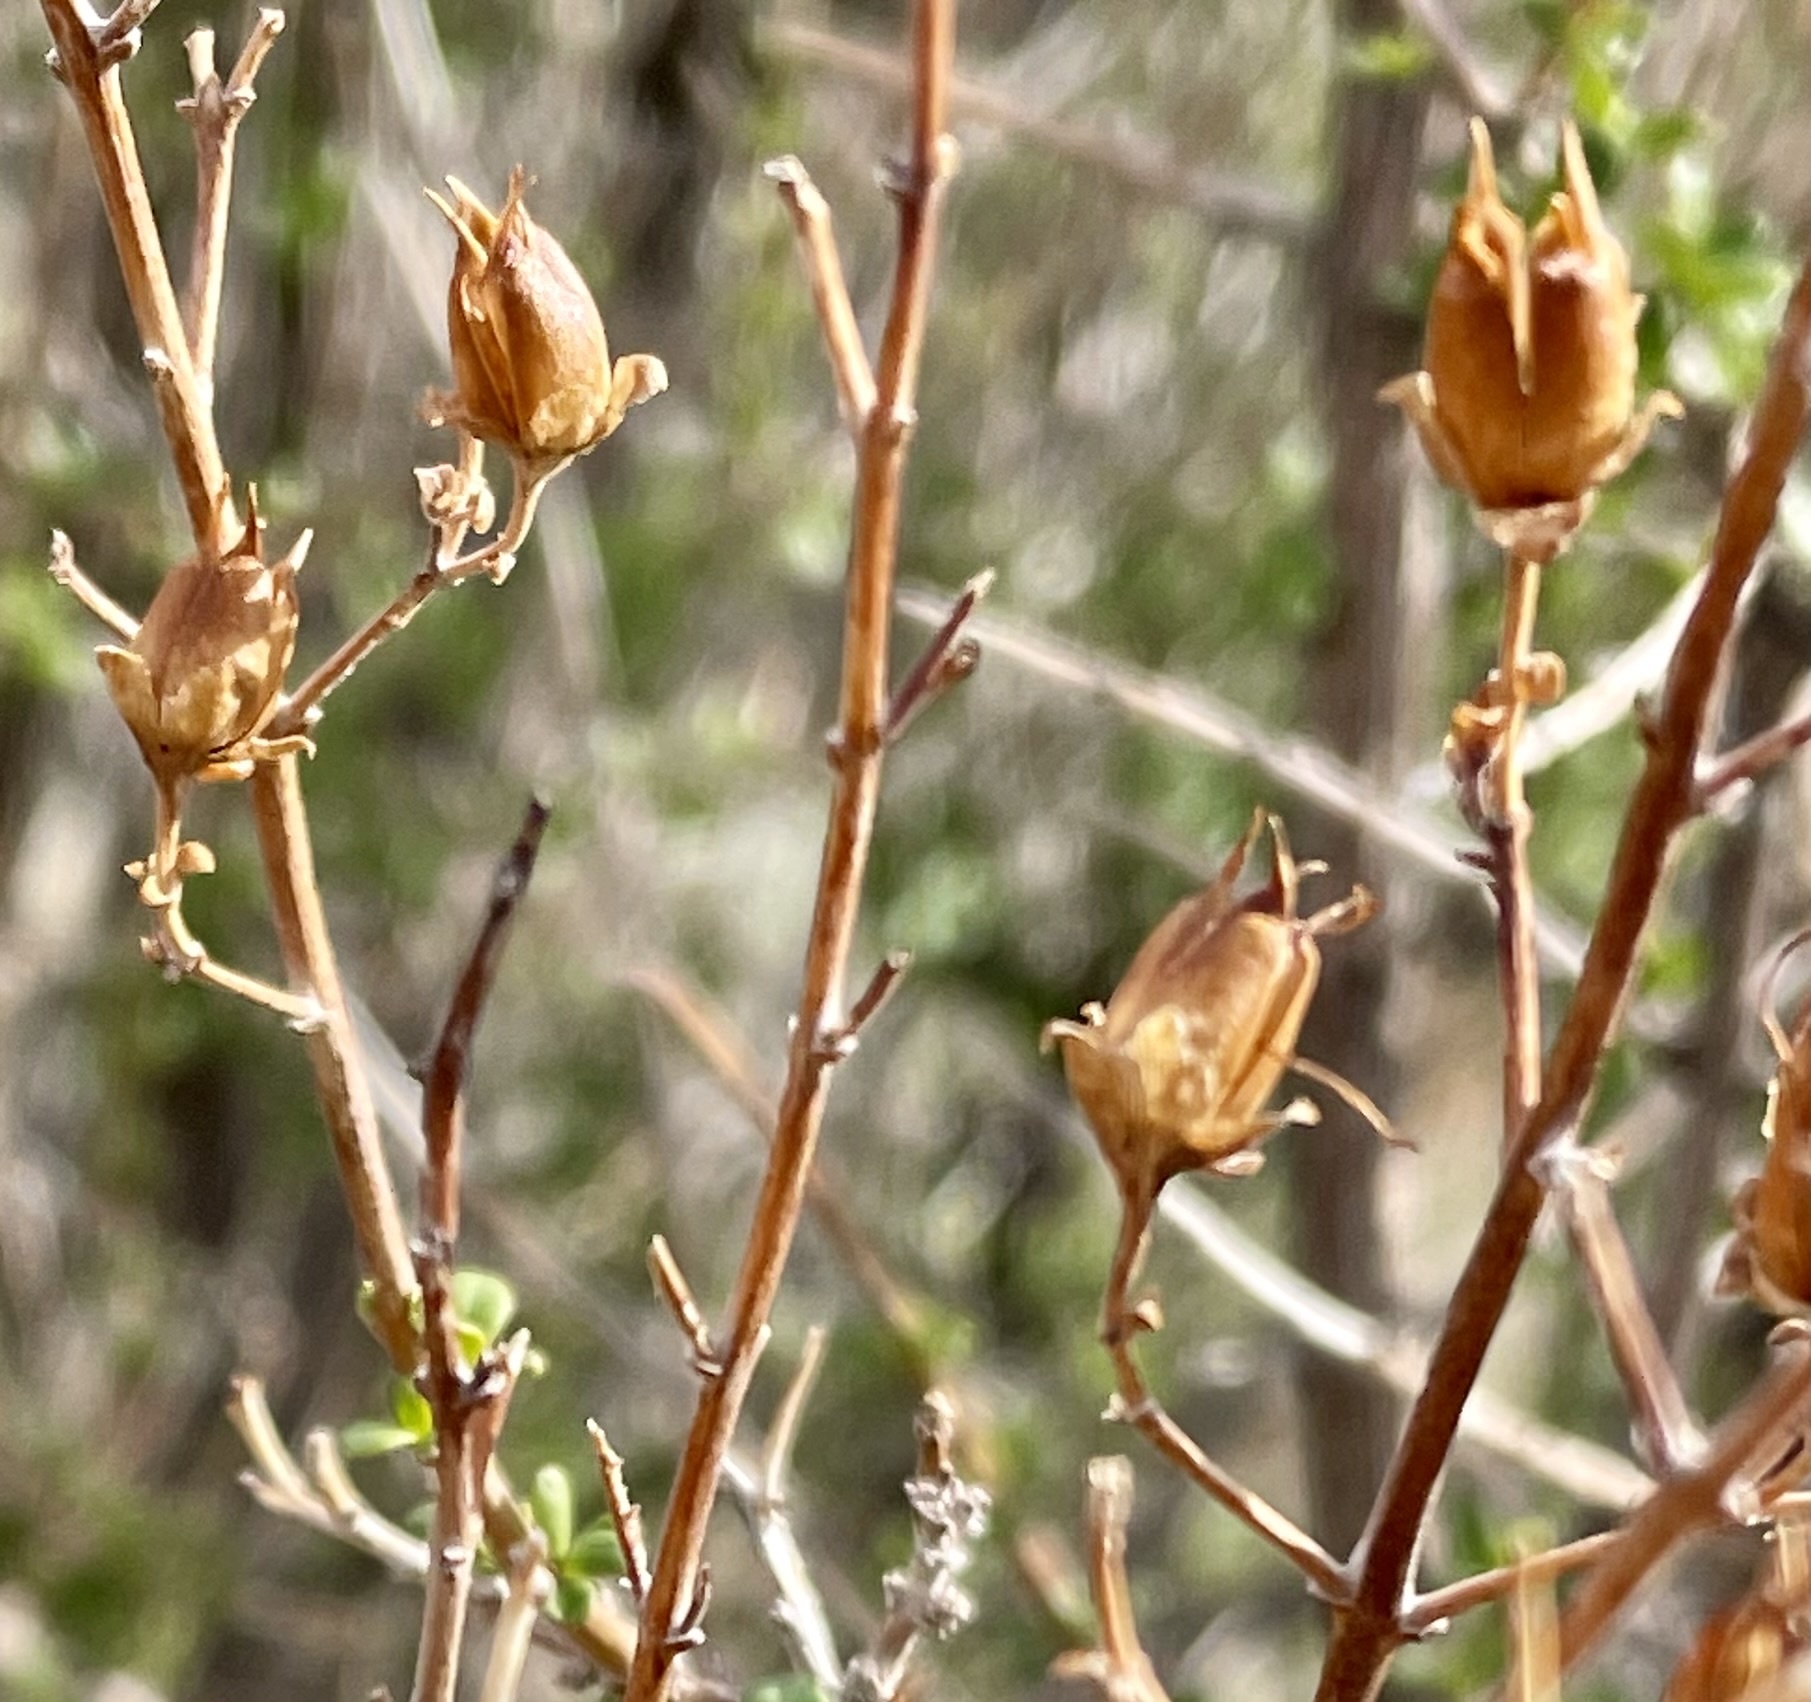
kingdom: Plantae
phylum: Tracheophyta
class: Magnoliopsida
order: Lamiales
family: Plantaginaceae
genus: Keckiella
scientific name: Keckiella antirrhinoides
